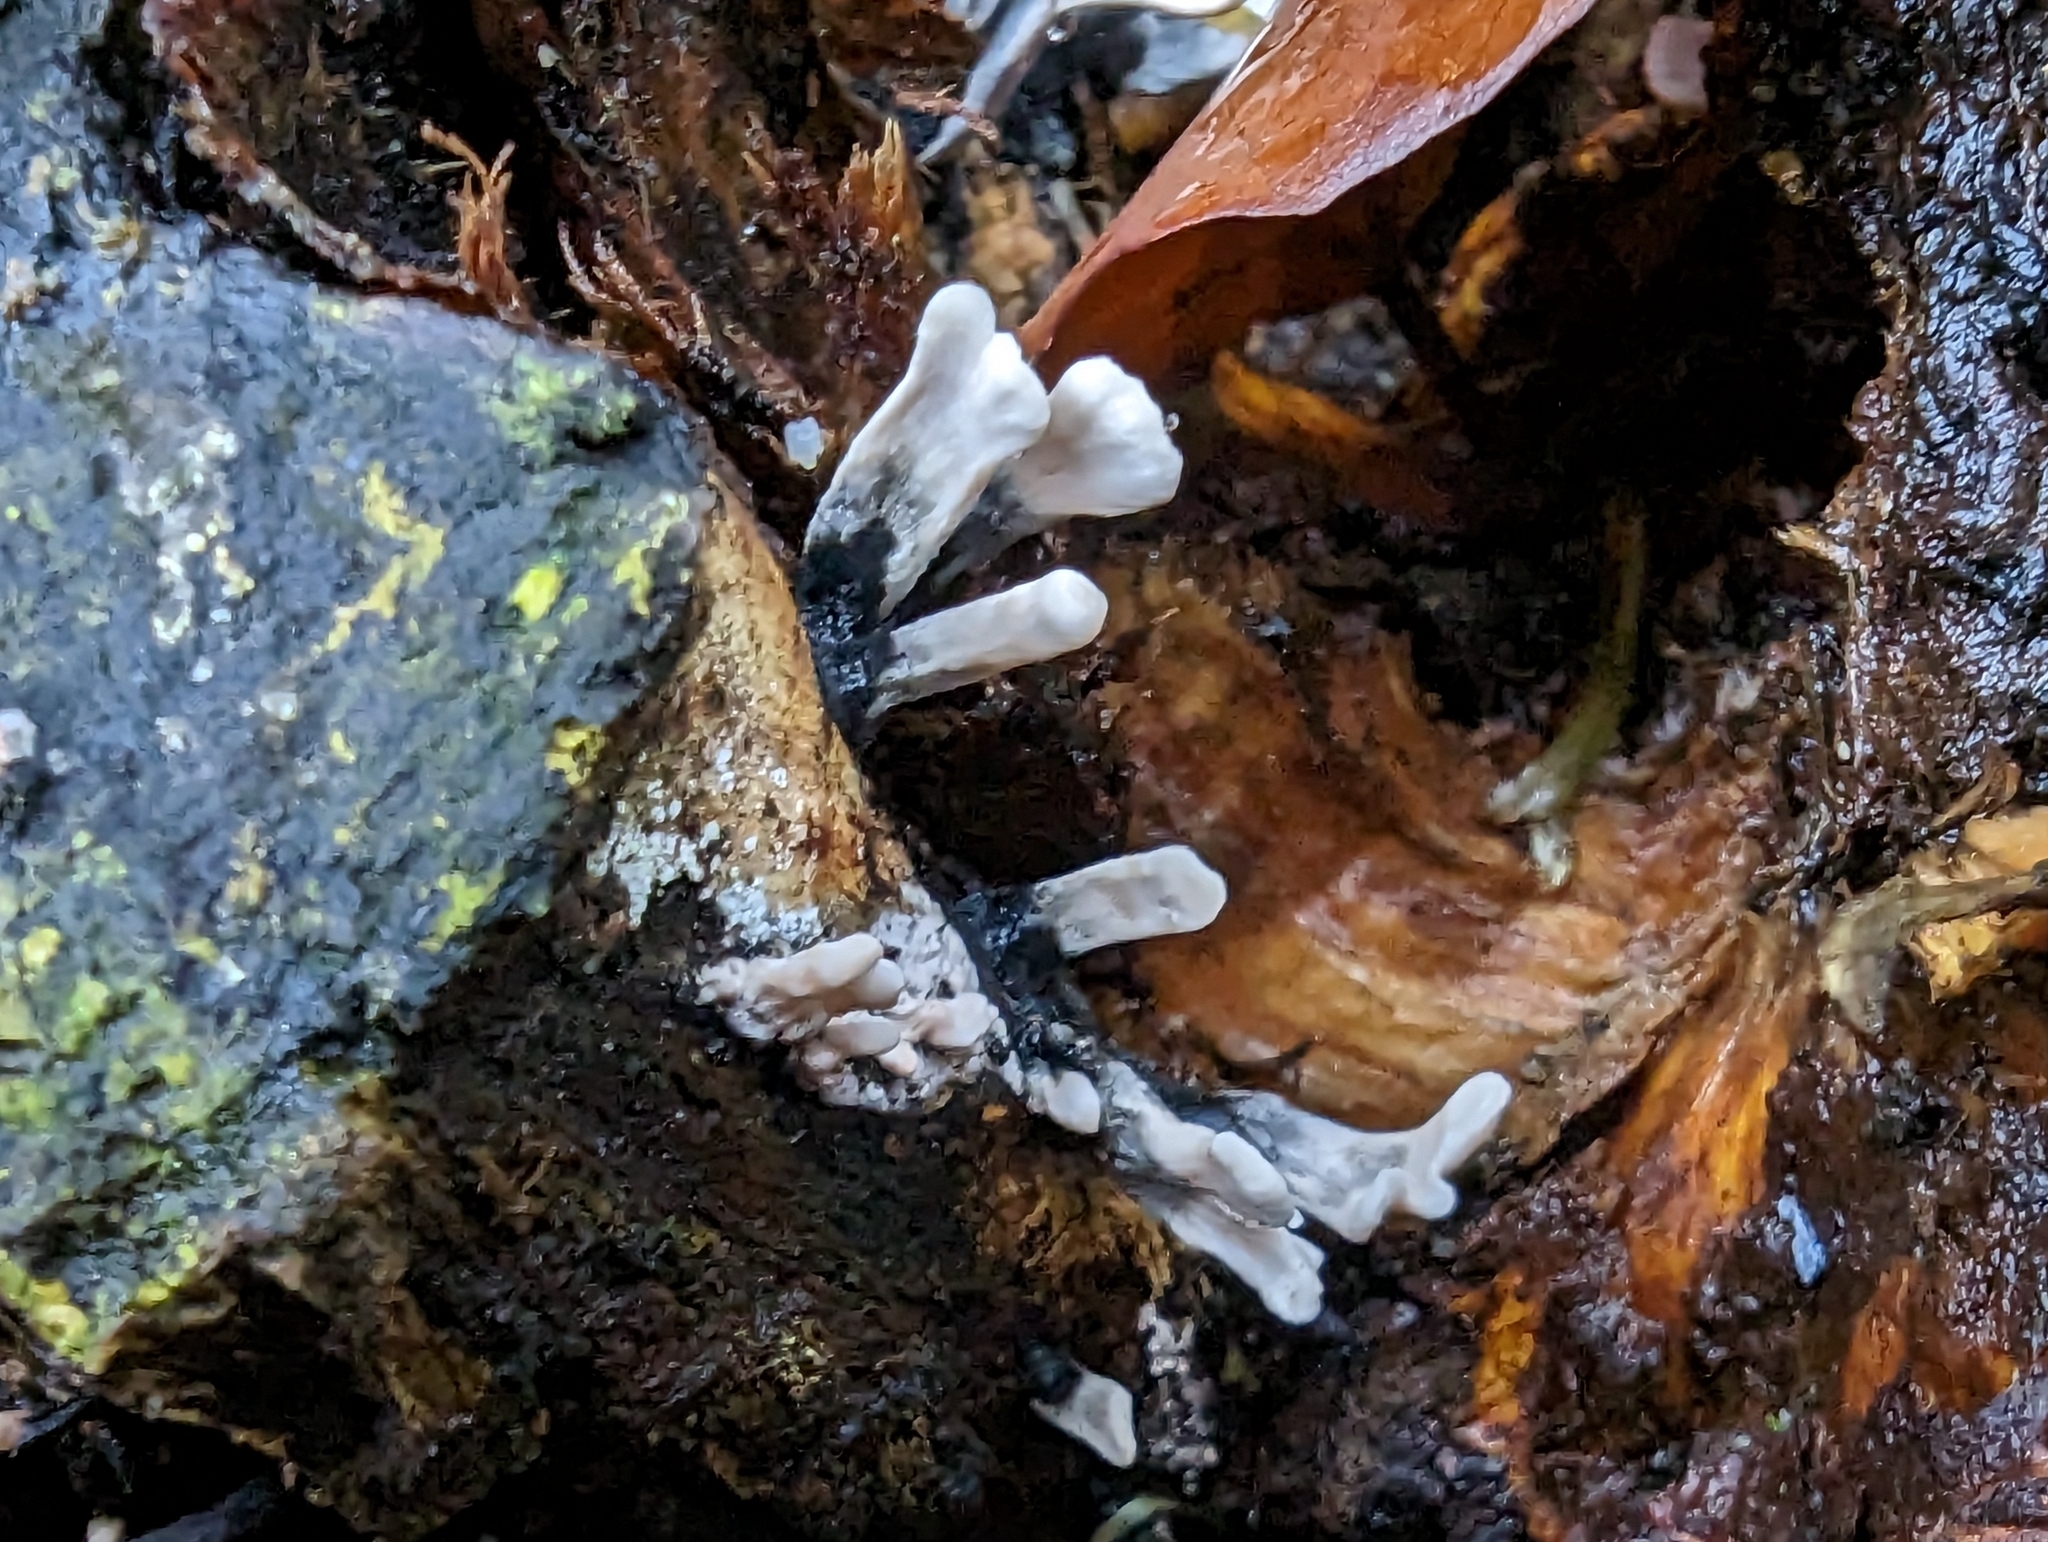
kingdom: Fungi
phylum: Ascomycota
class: Sordariomycetes
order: Xylariales
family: Xylariaceae
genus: Xylaria
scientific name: Xylaria hypoxylon
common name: Candle-snuff fungus
